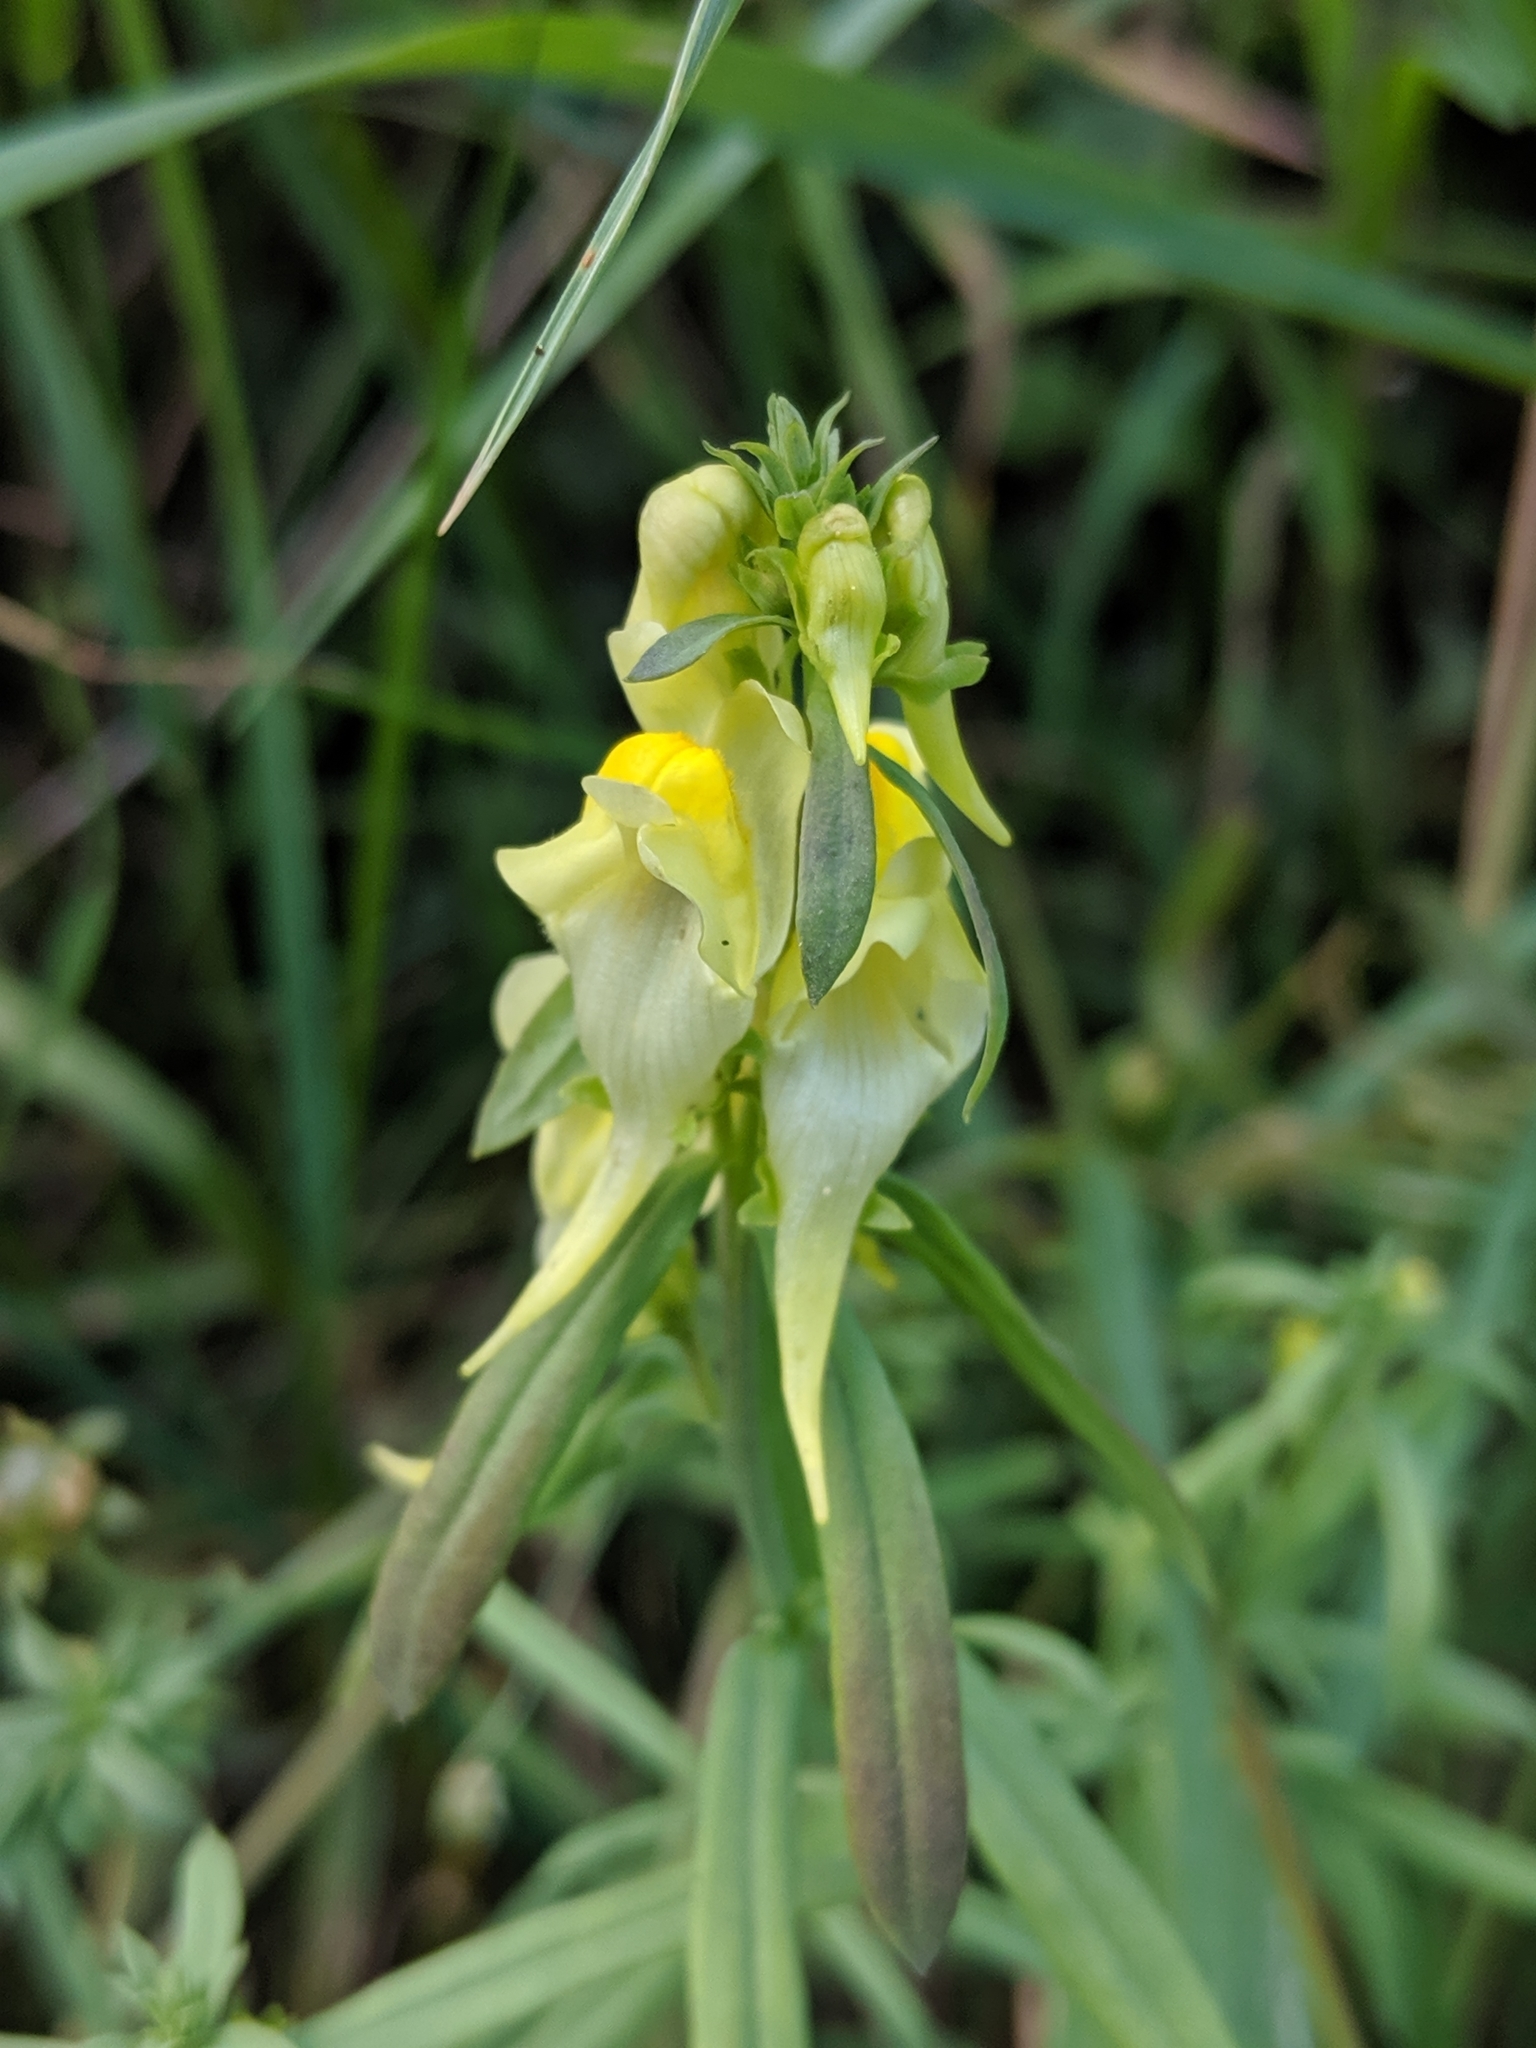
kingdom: Plantae
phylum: Tracheophyta
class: Magnoliopsida
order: Lamiales
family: Plantaginaceae
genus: Linaria
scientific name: Linaria vulgaris
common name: Butter and eggs
